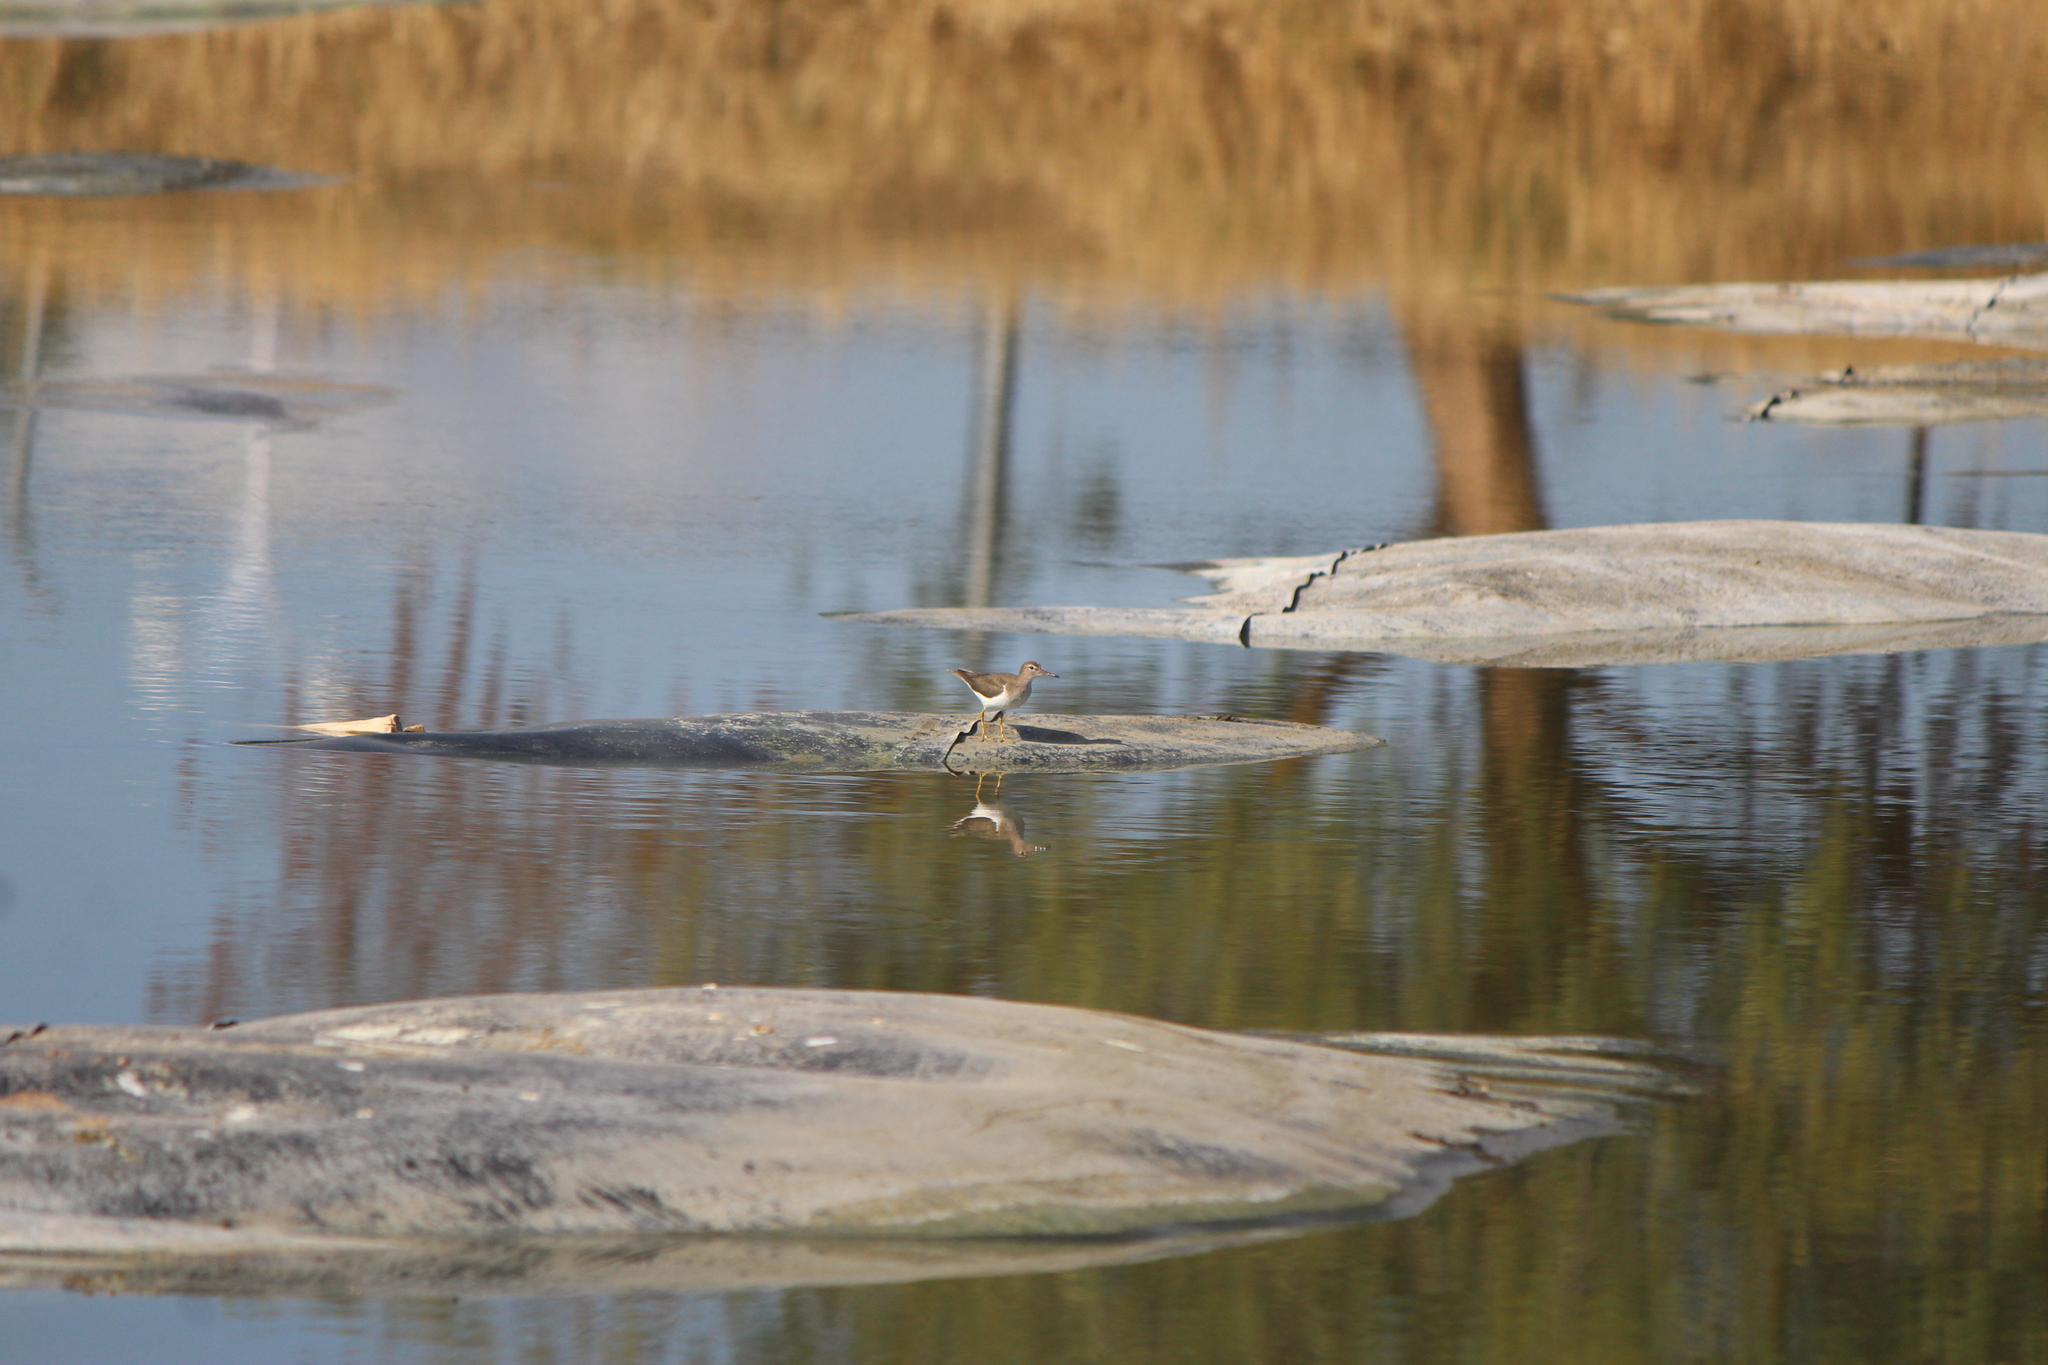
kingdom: Animalia
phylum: Chordata
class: Aves
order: Charadriiformes
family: Scolopacidae
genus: Actitis
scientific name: Actitis macularius
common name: Spotted sandpiper
